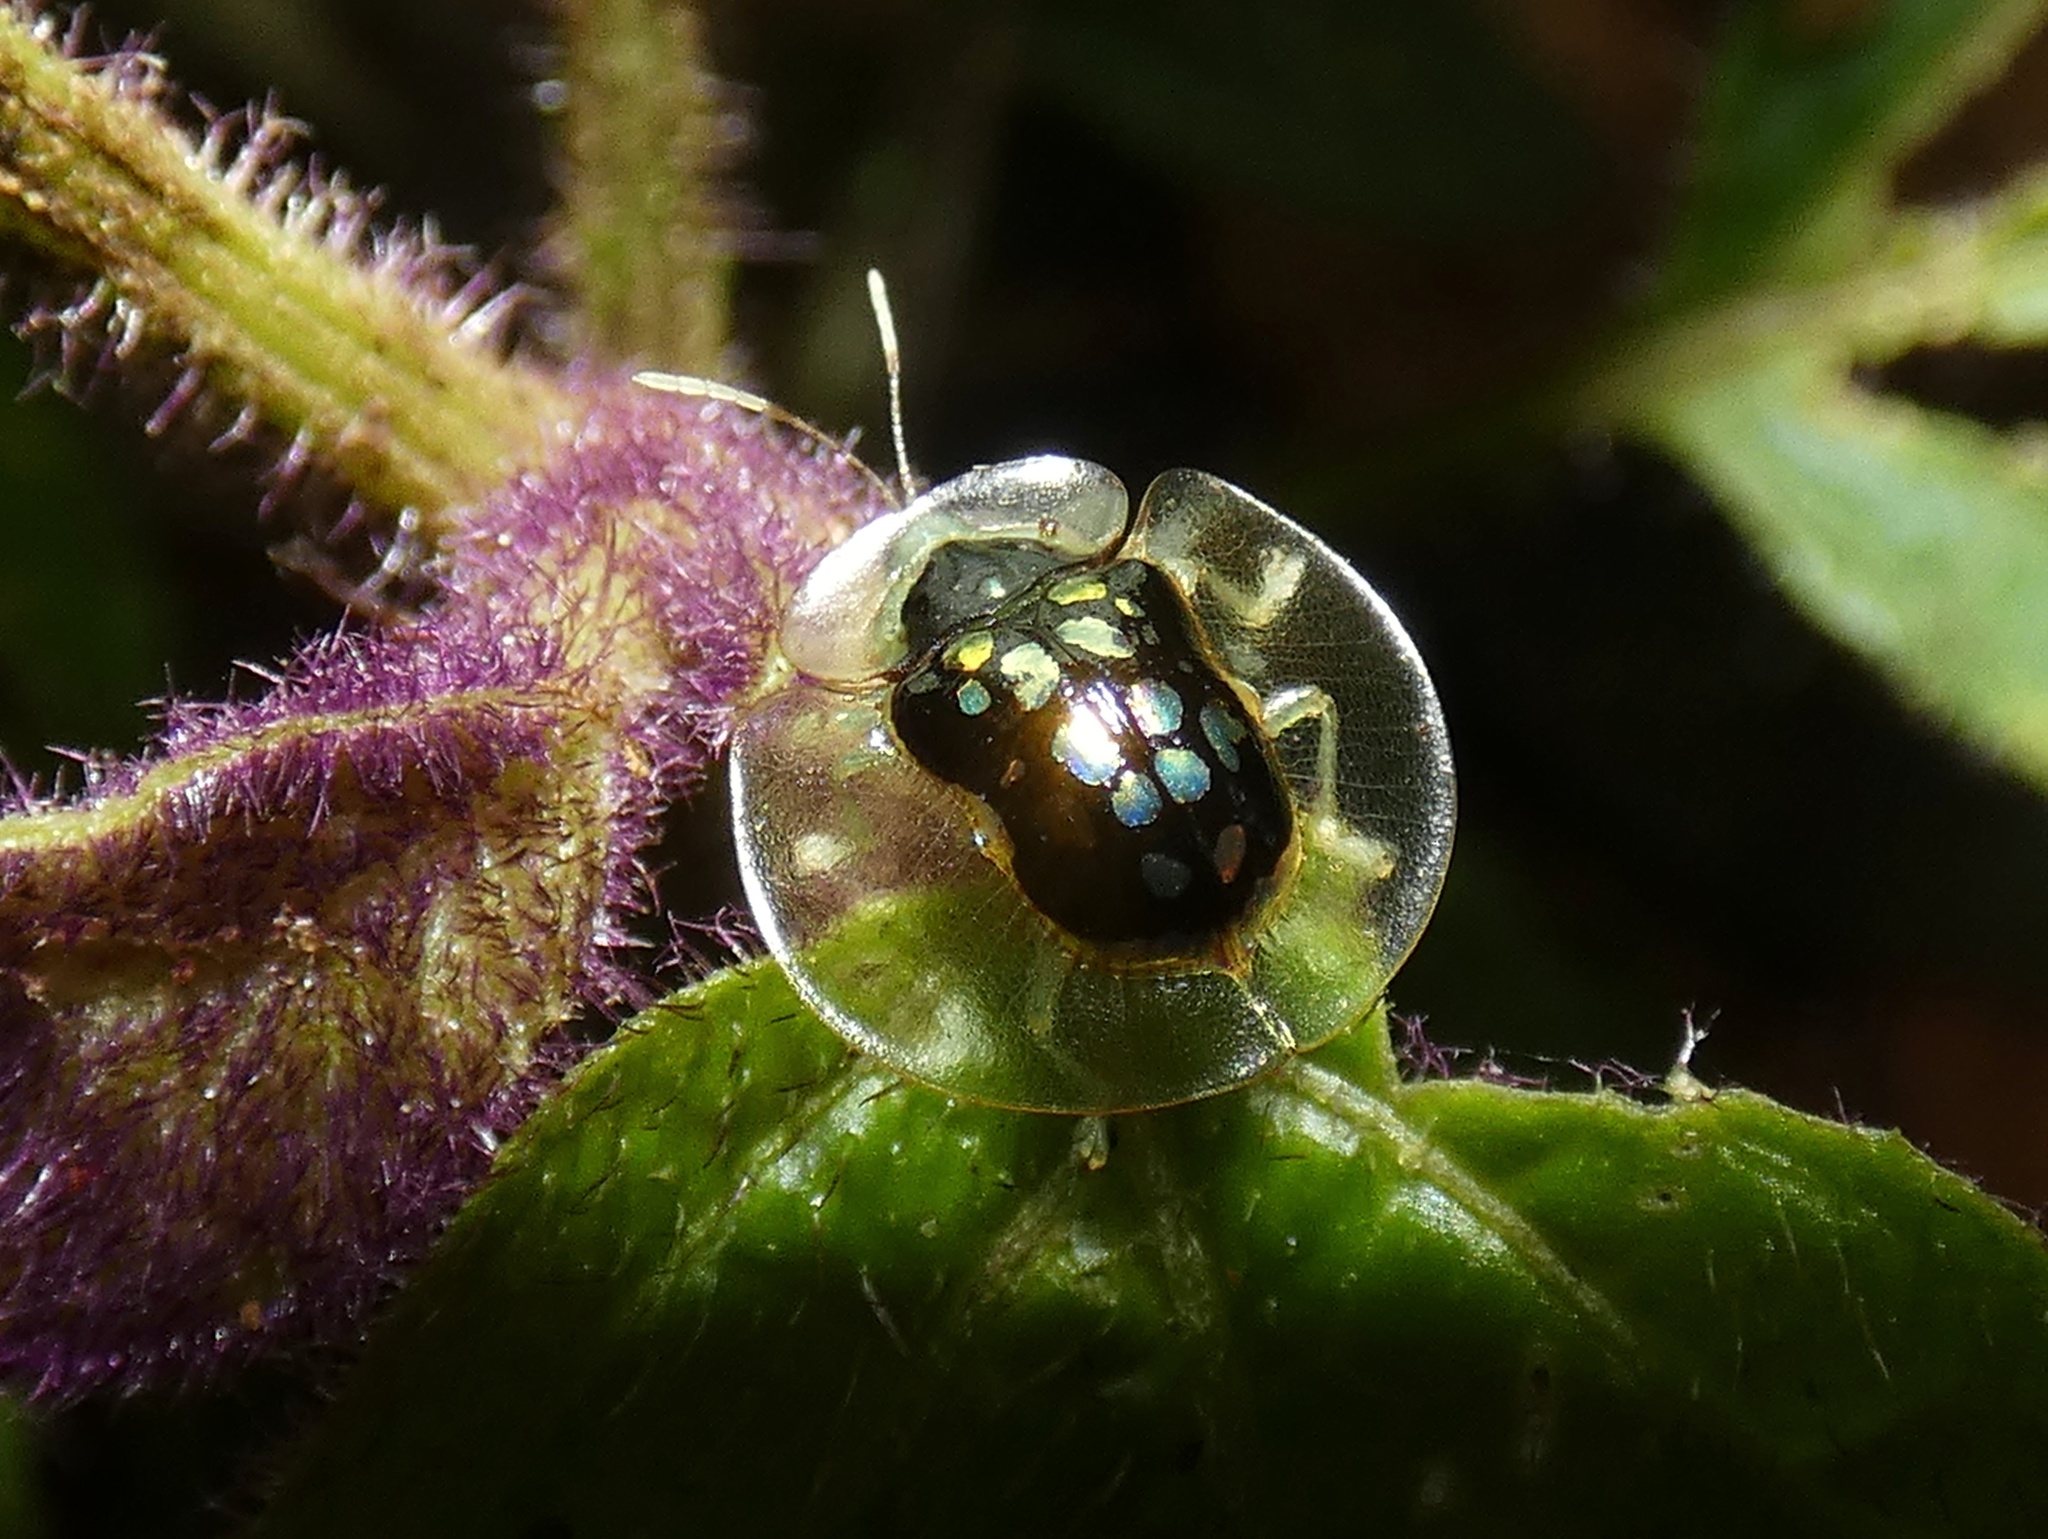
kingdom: Animalia
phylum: Arthropoda
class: Insecta
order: Coleoptera
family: Chrysomelidae
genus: Plagiometriona
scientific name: Plagiometriona latemarginata
